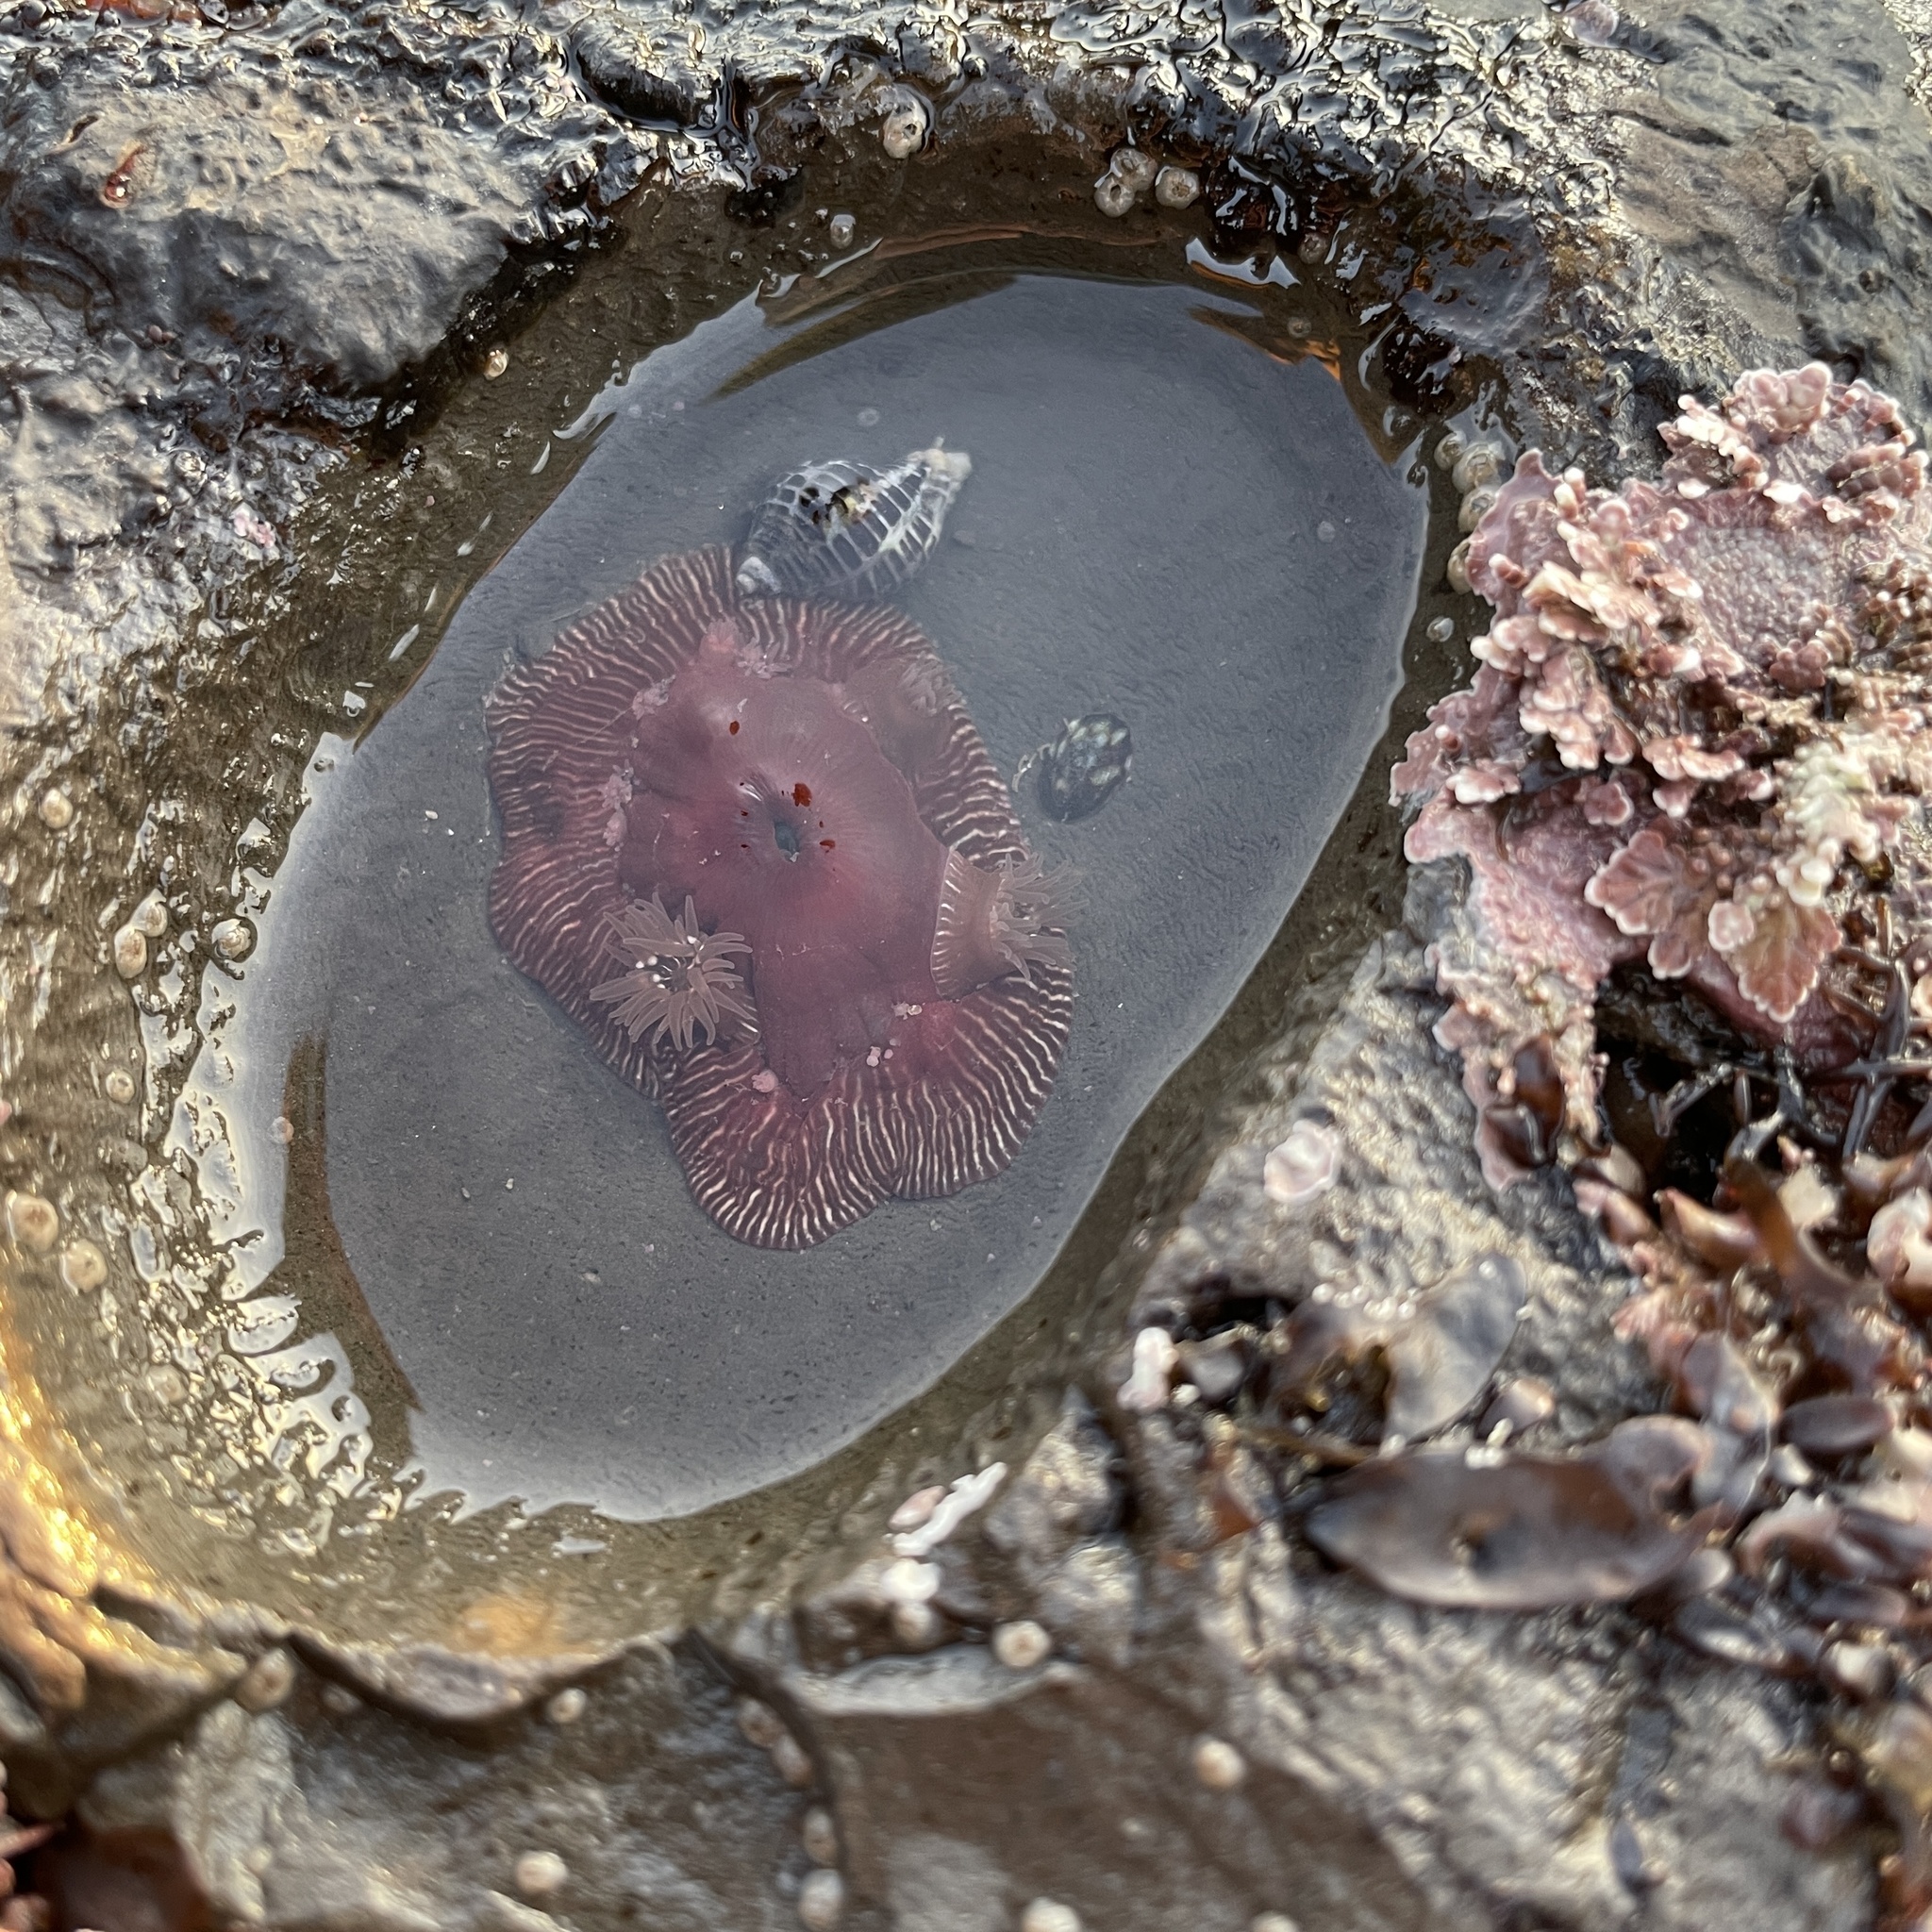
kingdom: Animalia
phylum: Cnidaria
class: Anthozoa
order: Actiniaria
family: Actiniidae
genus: Epiactis
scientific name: Epiactis prolifera
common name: Brooding anemone
